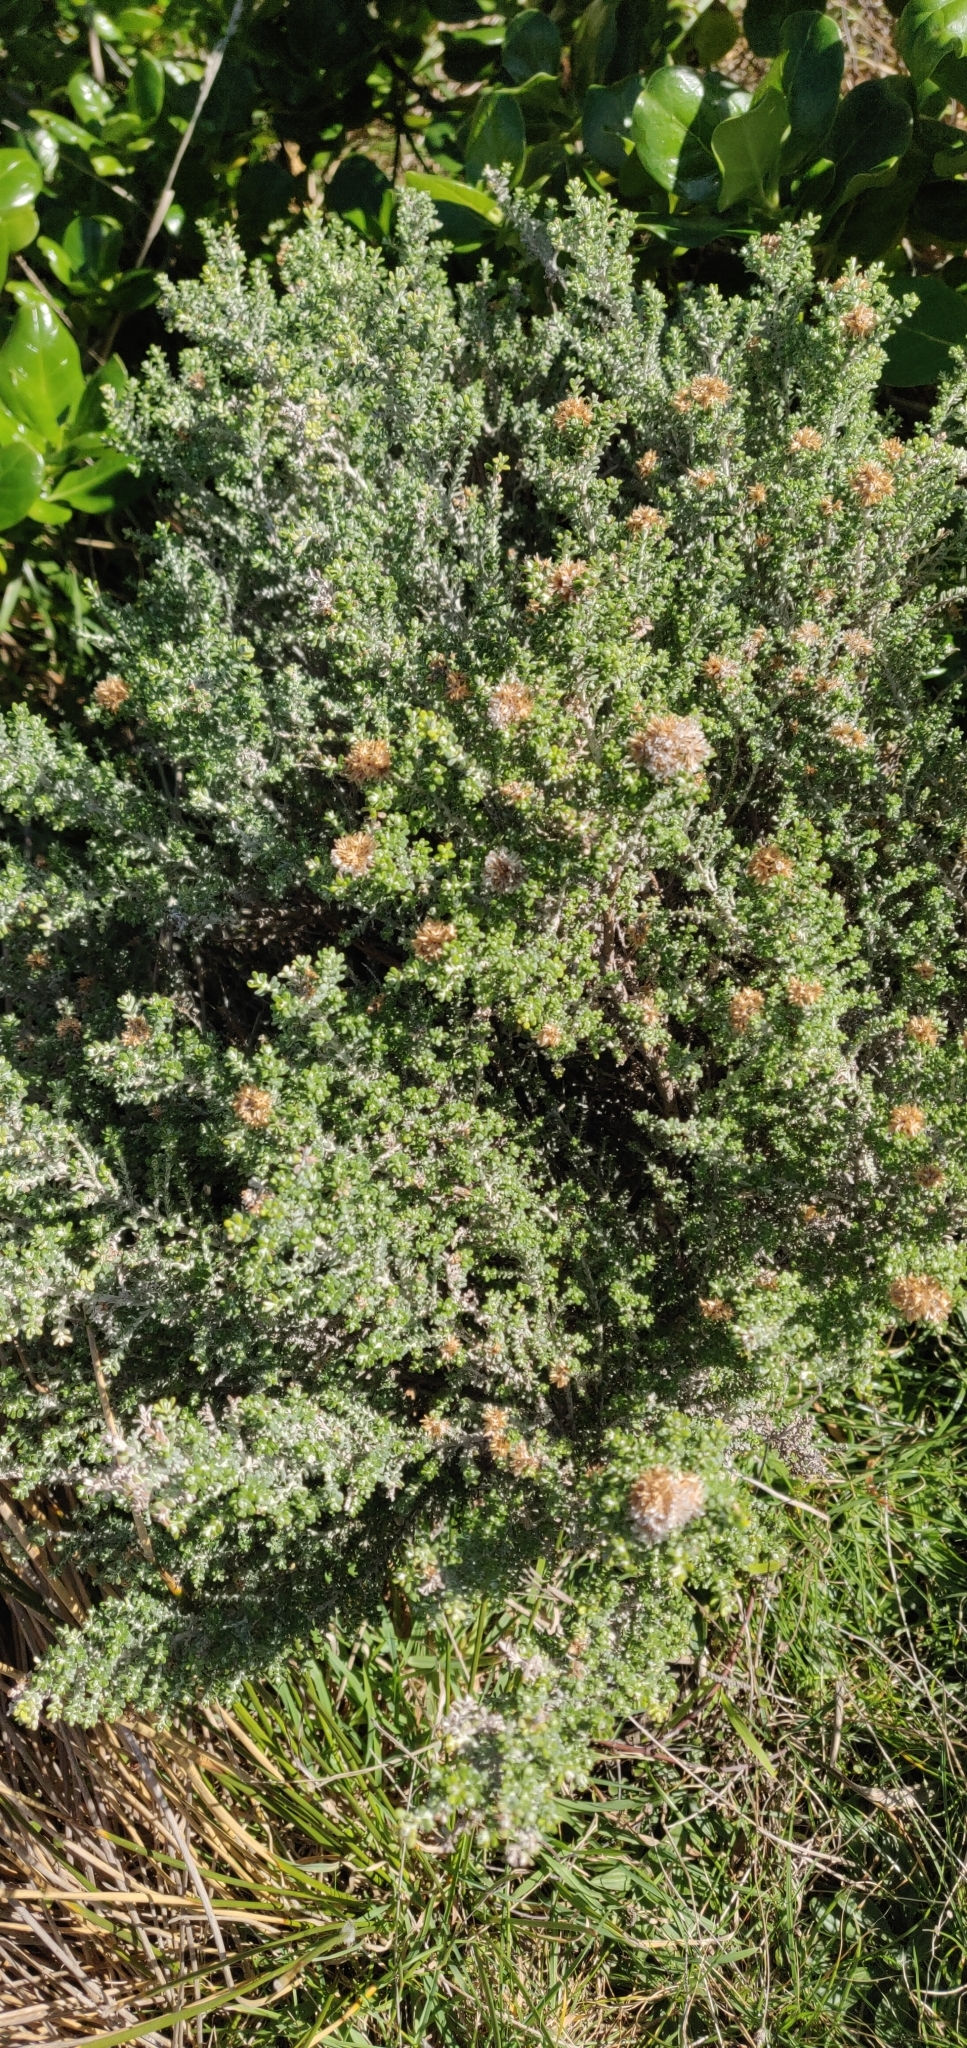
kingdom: Plantae
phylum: Tracheophyta
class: Magnoliopsida
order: Asterales
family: Asteraceae
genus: Ozothamnus
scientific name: Ozothamnus leptophyllus
